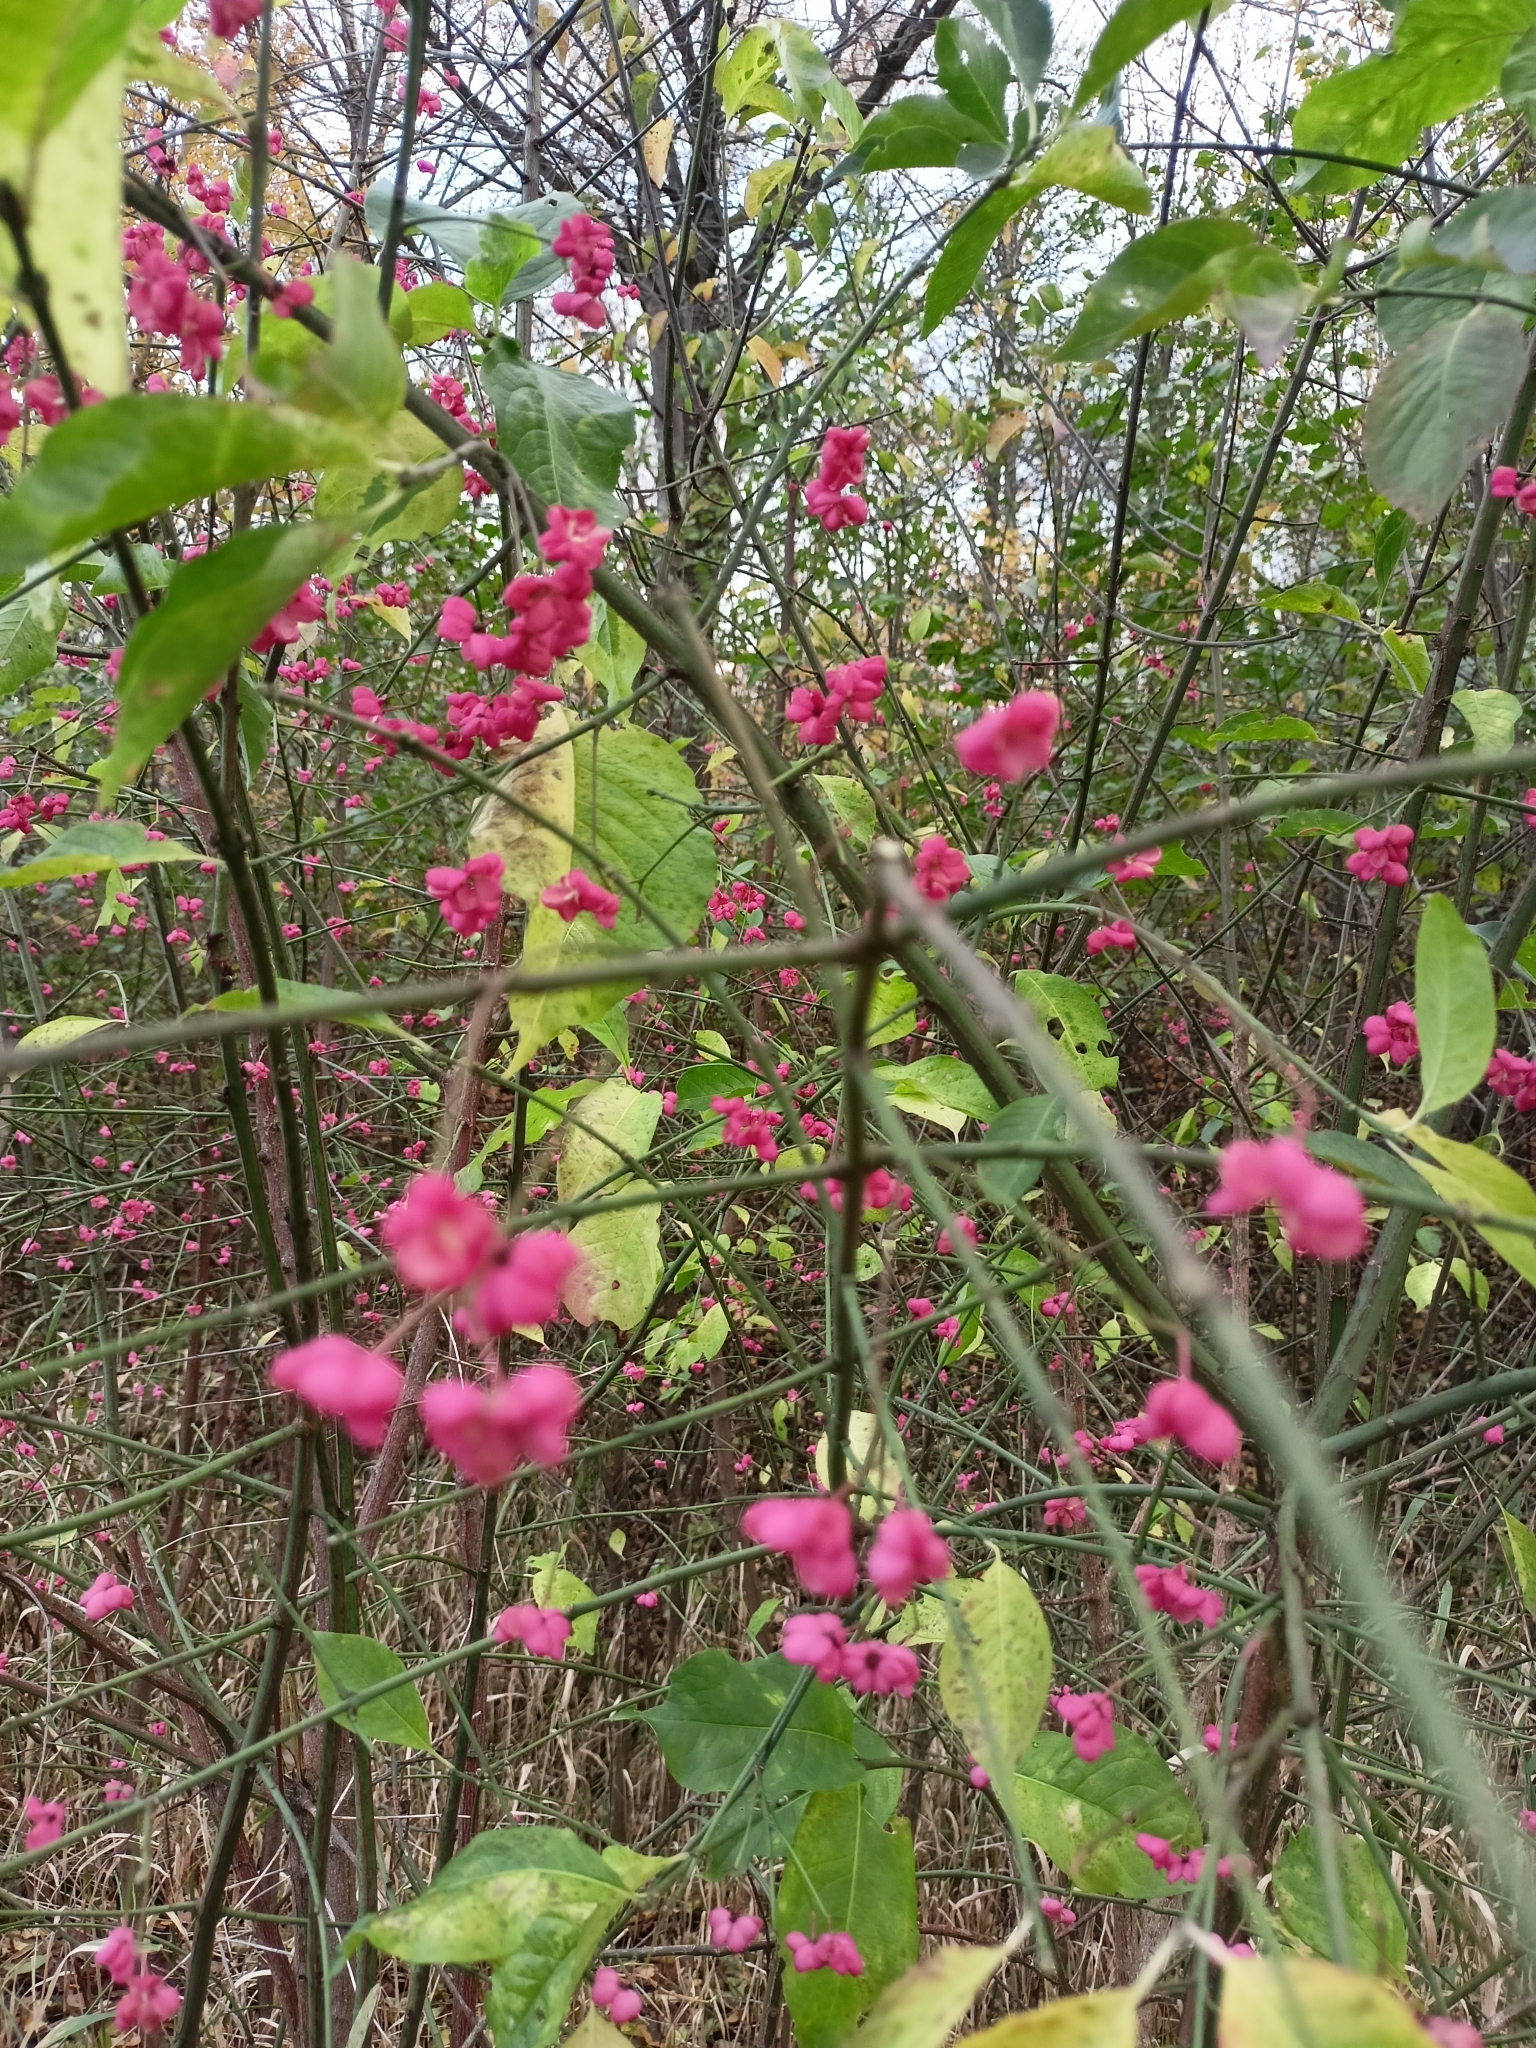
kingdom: Plantae
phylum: Tracheophyta
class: Magnoliopsida
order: Celastrales
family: Celastraceae
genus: Euonymus
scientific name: Euonymus europaeus
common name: Spindle
